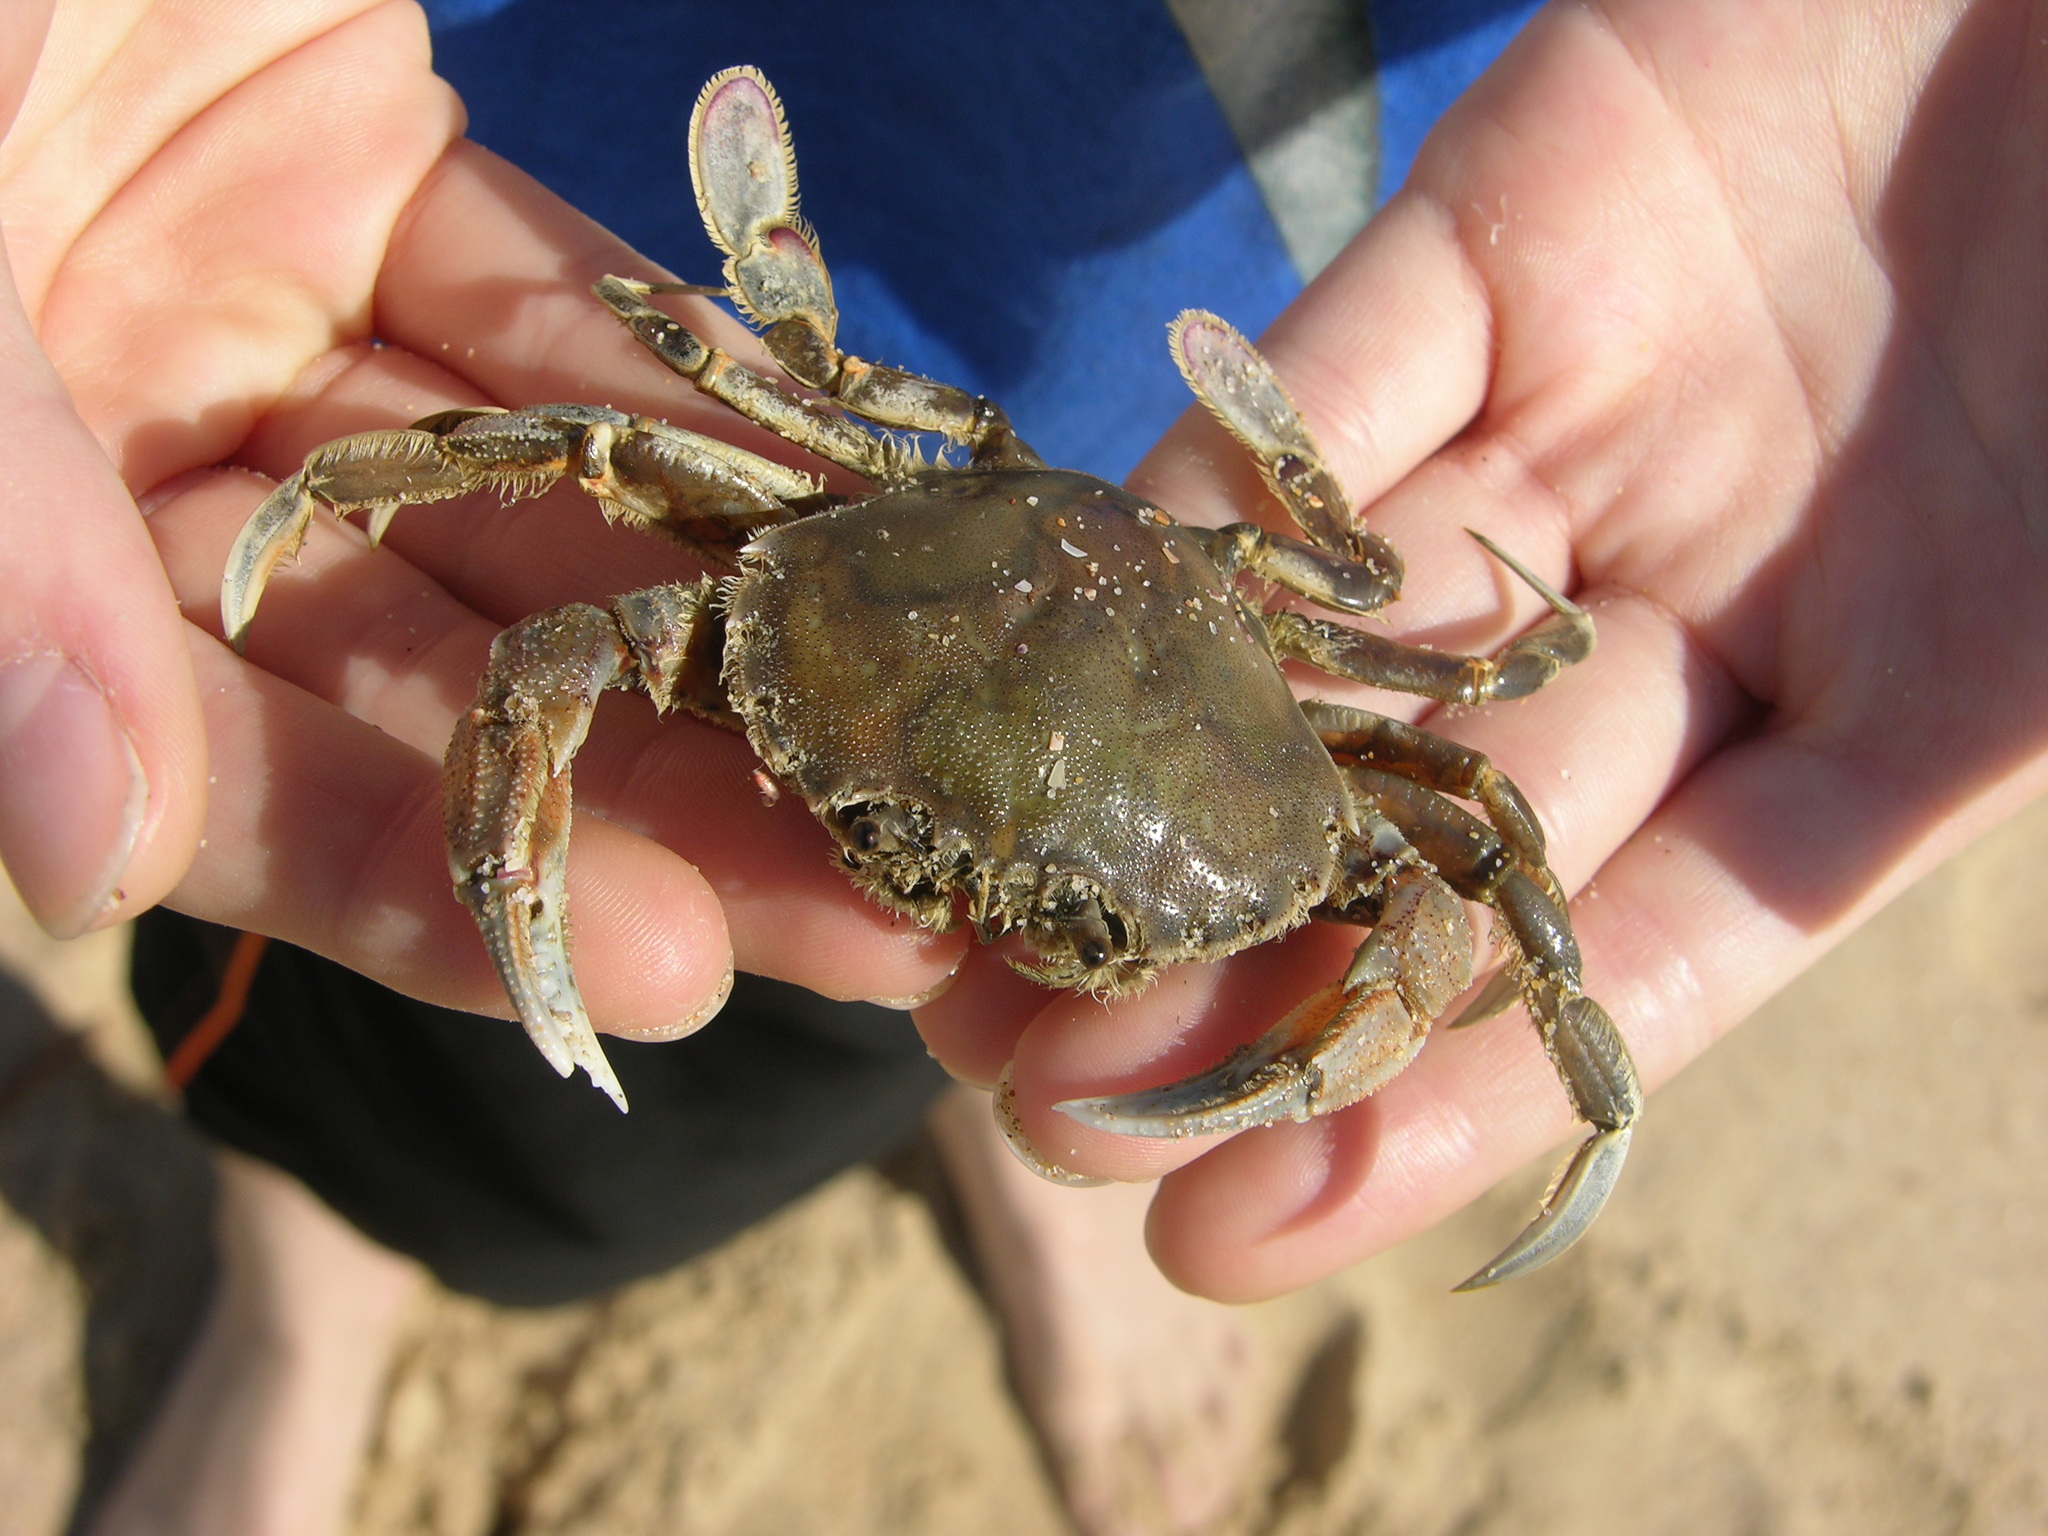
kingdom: Animalia
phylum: Arthropoda
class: Malacostraca
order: Decapoda
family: Ovalipidae
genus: Ovalipes
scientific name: Ovalipes australiensis
